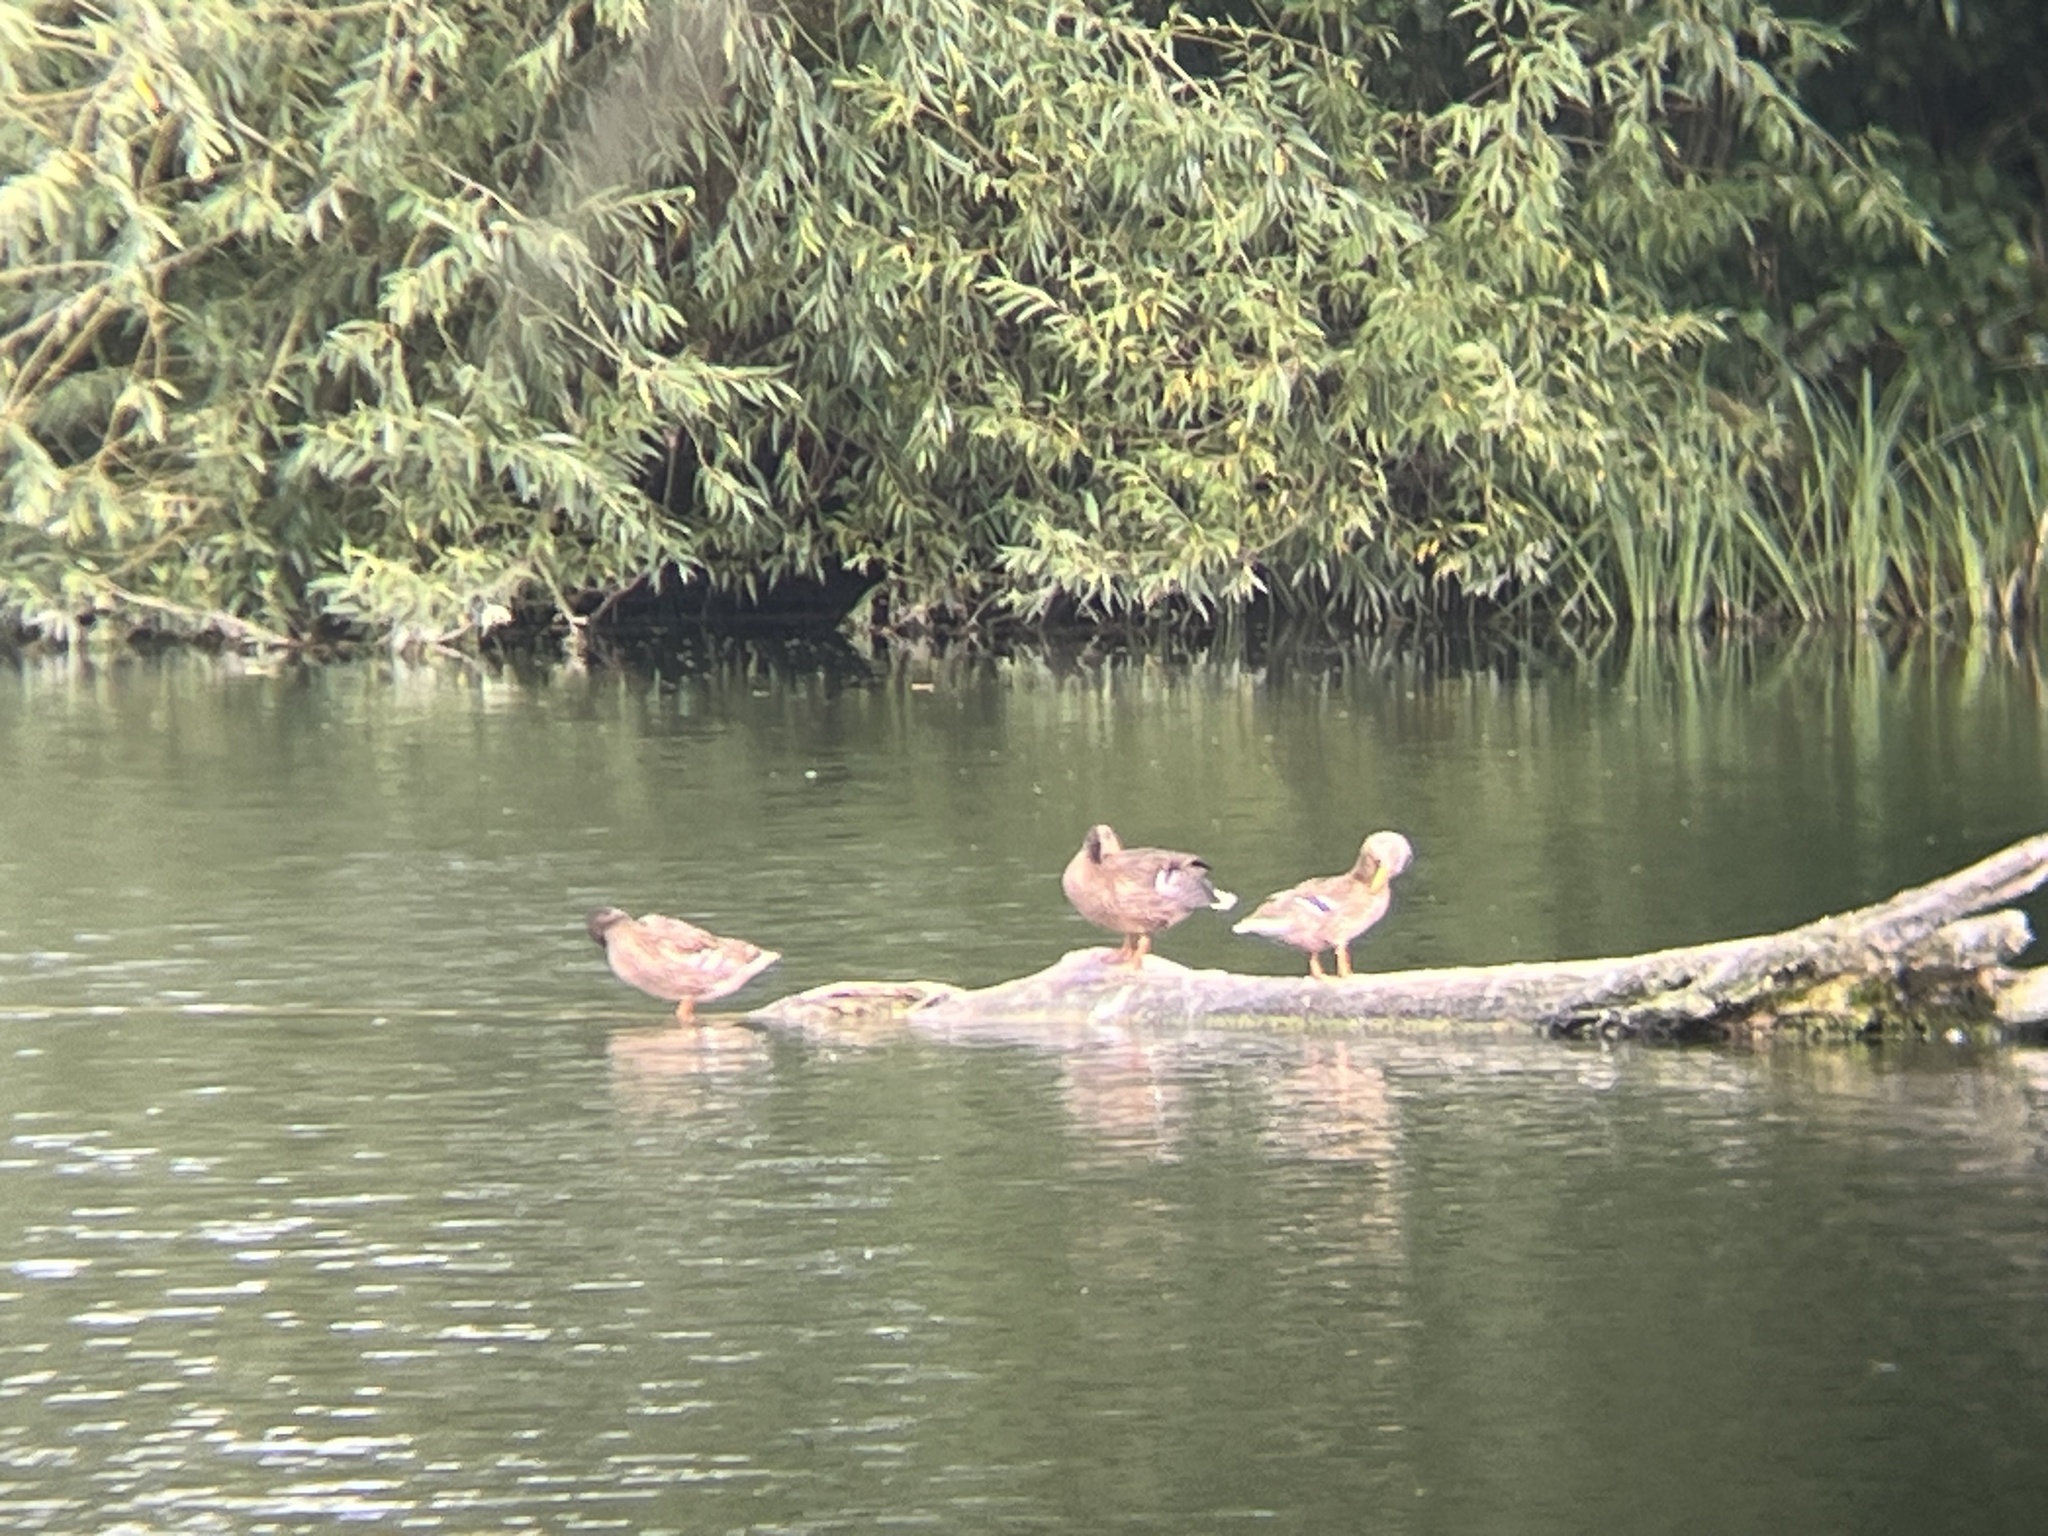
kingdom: Animalia
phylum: Chordata
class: Aves
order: Anseriformes
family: Anatidae
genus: Anas
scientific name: Anas platyrhynchos
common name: Mallard
